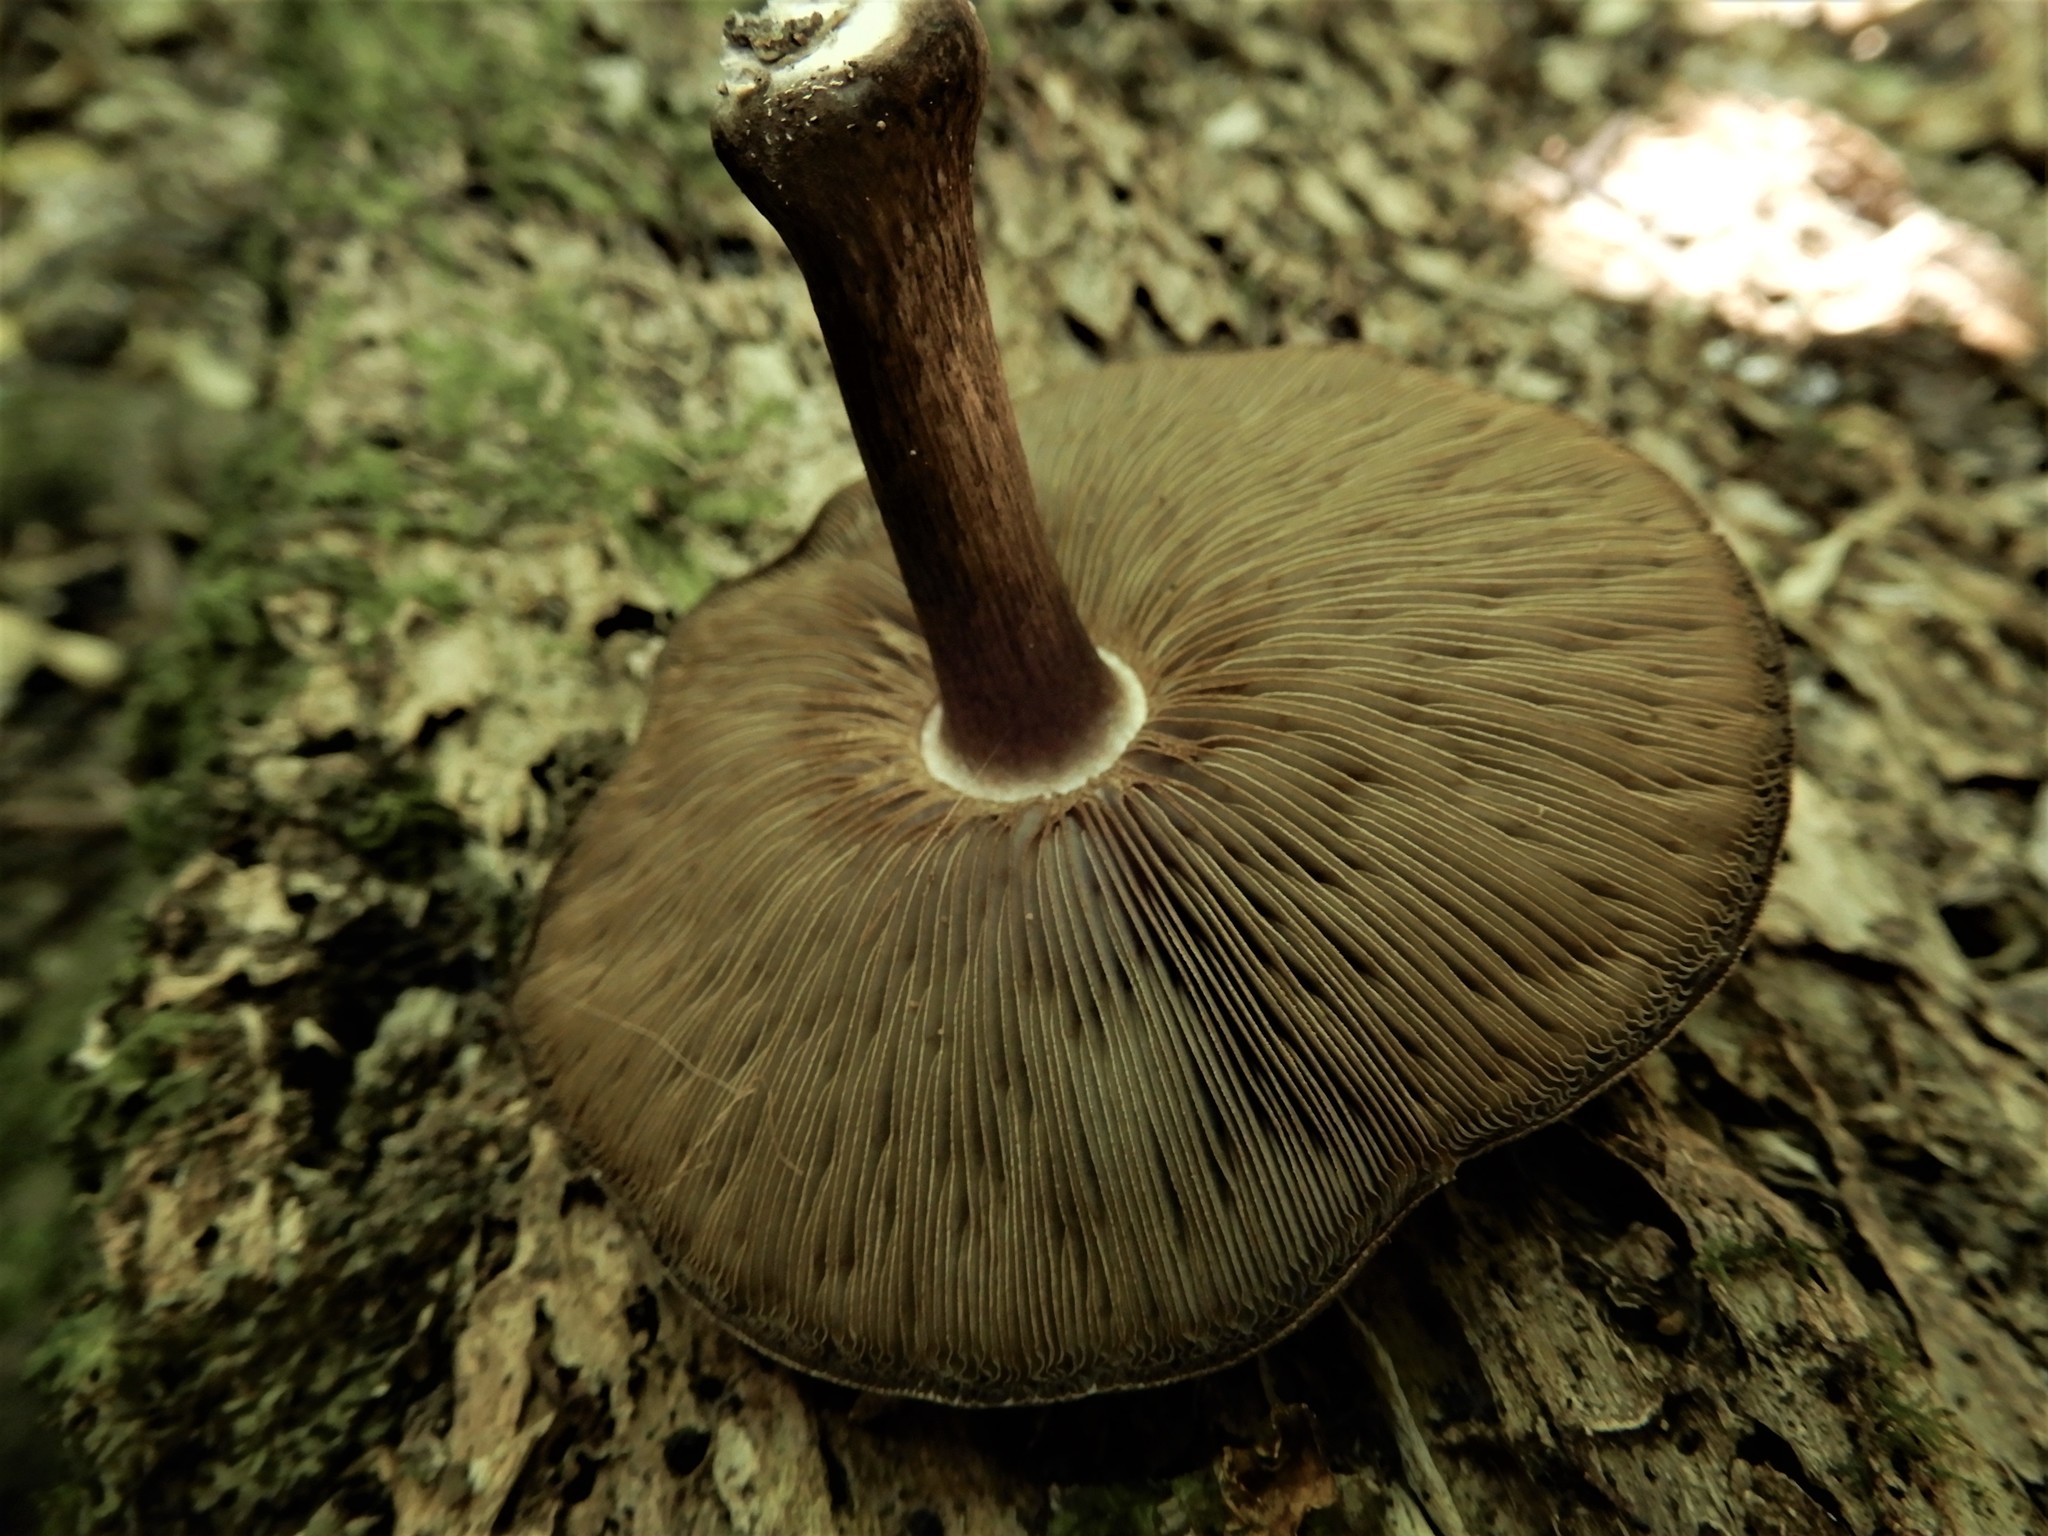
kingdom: Fungi
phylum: Basidiomycota
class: Agaricomycetes
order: Agaricales
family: Pluteaceae
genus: Pluteus
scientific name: Pluteus microspermus
